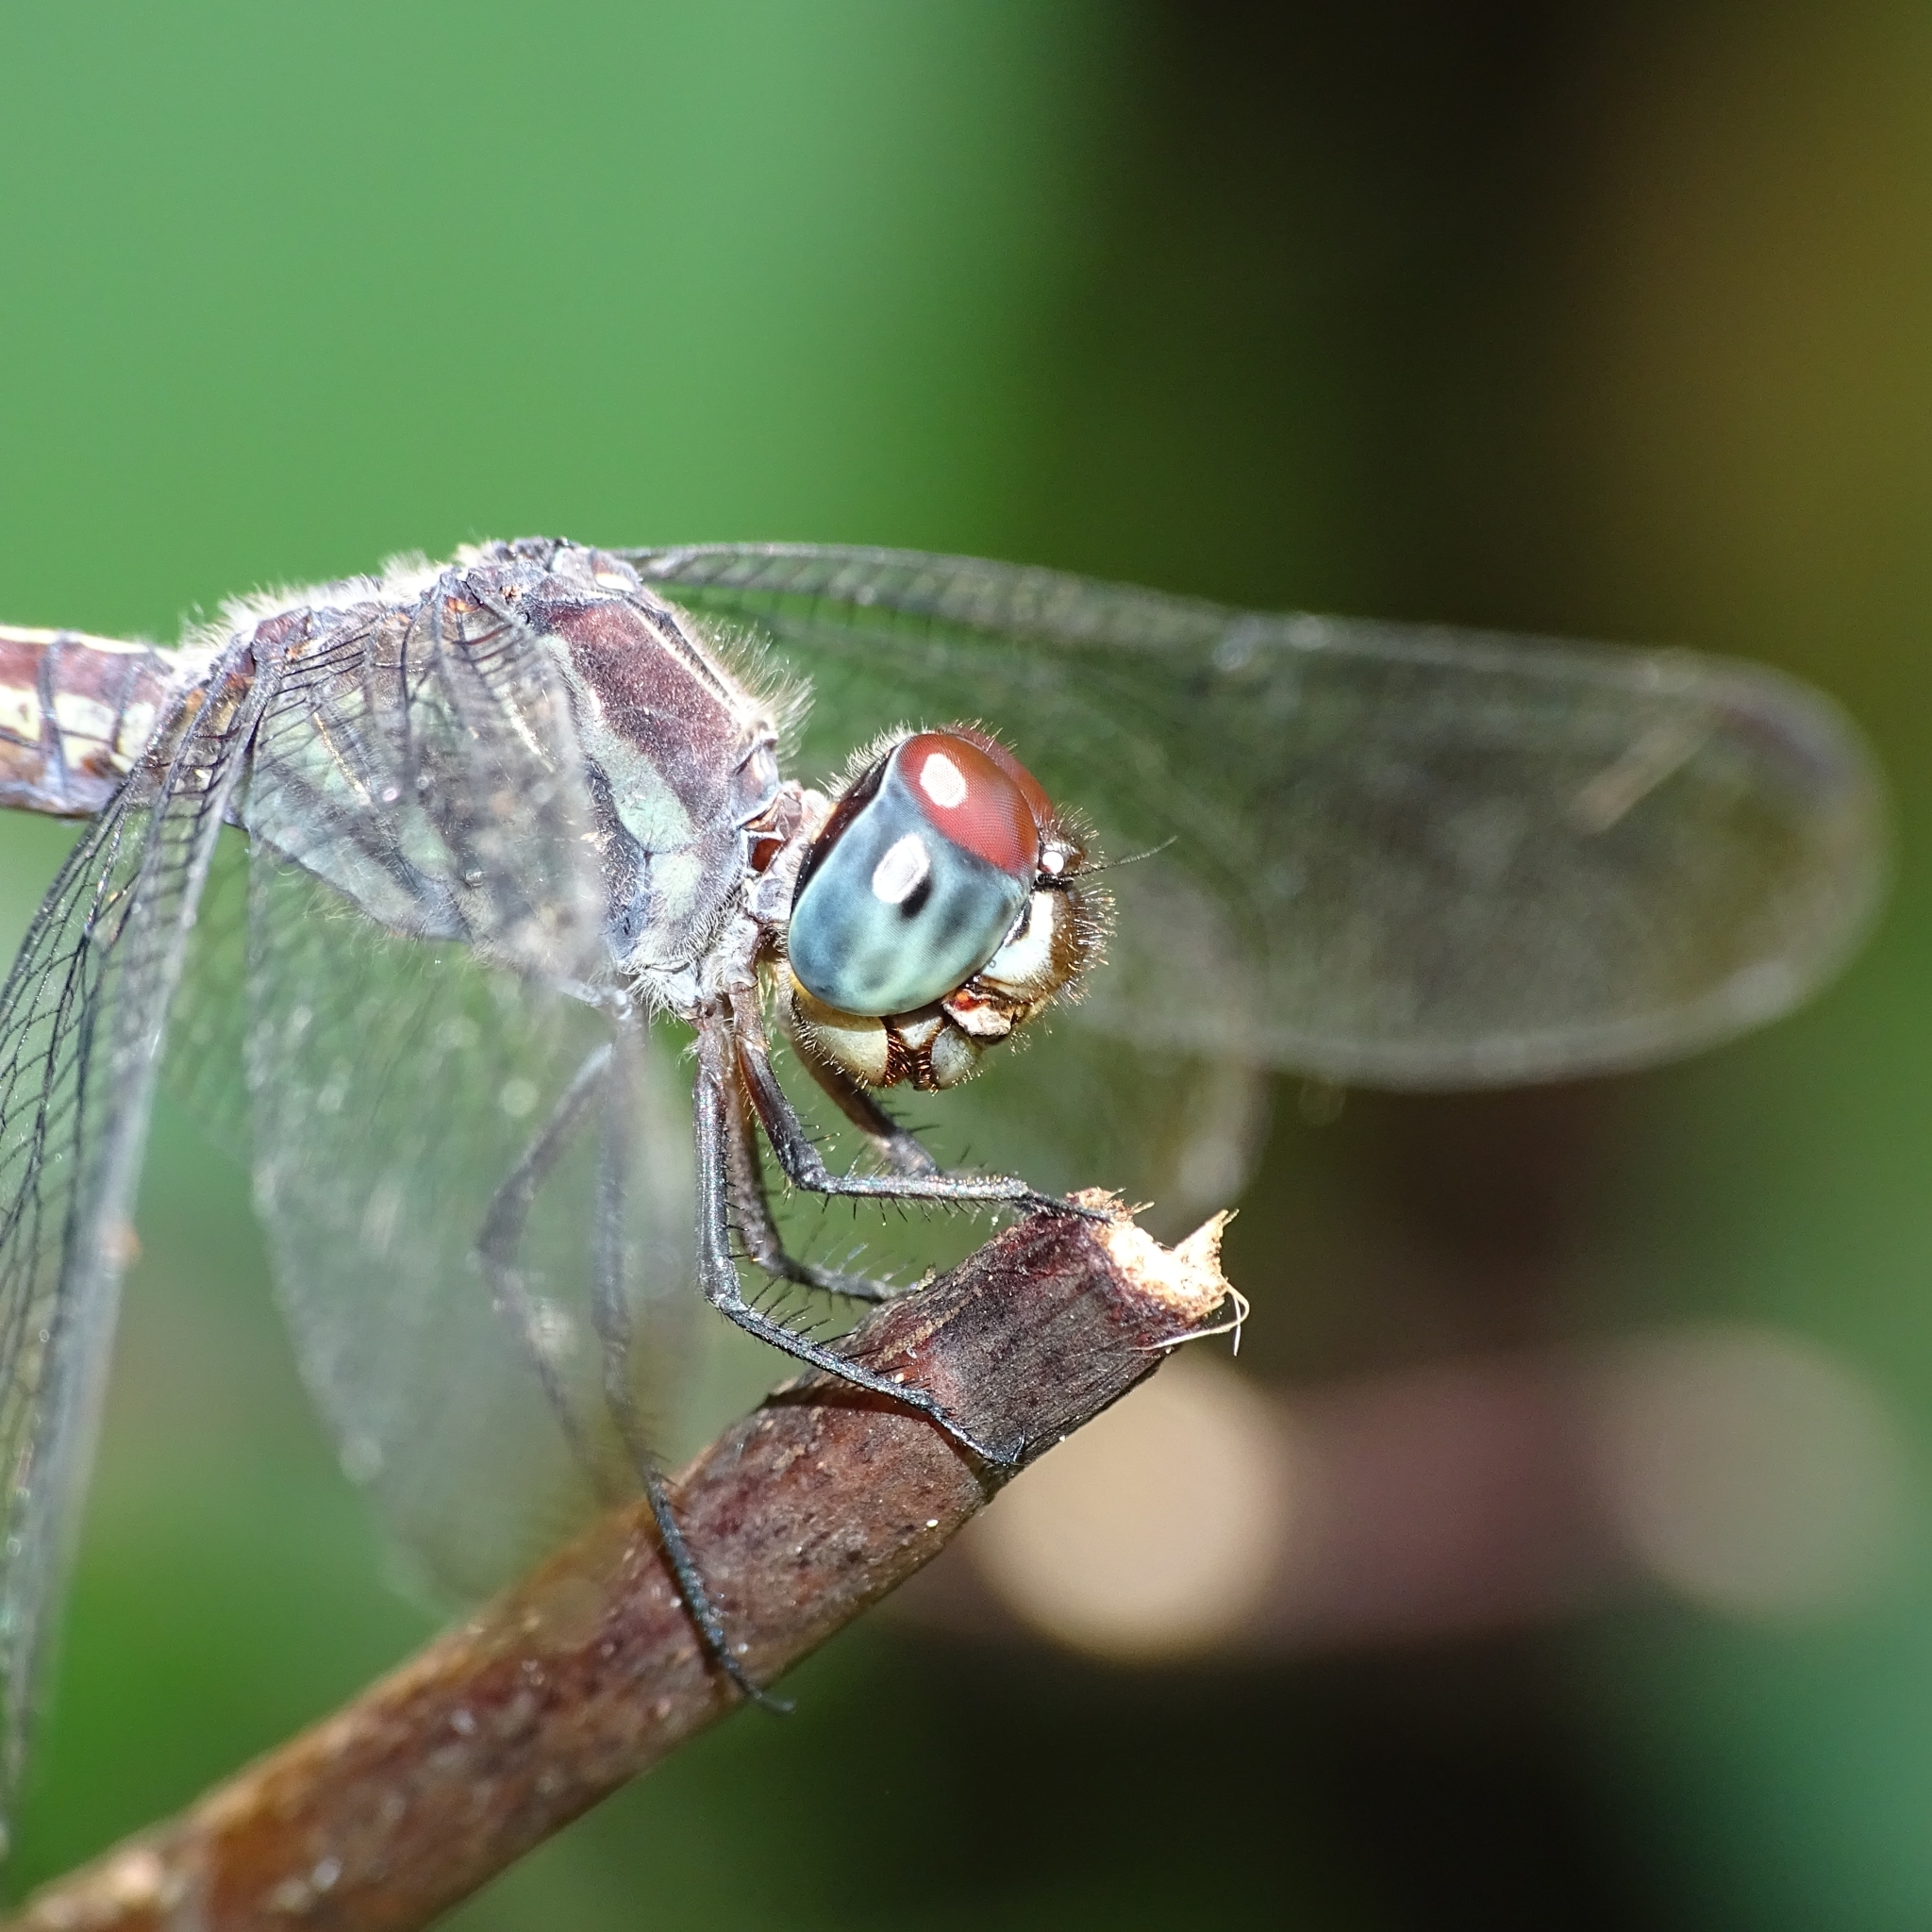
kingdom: Animalia
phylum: Arthropoda
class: Insecta
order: Odonata
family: Libellulidae
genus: Lathrecista
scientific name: Lathrecista asiatica
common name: Scarlet grenadier
